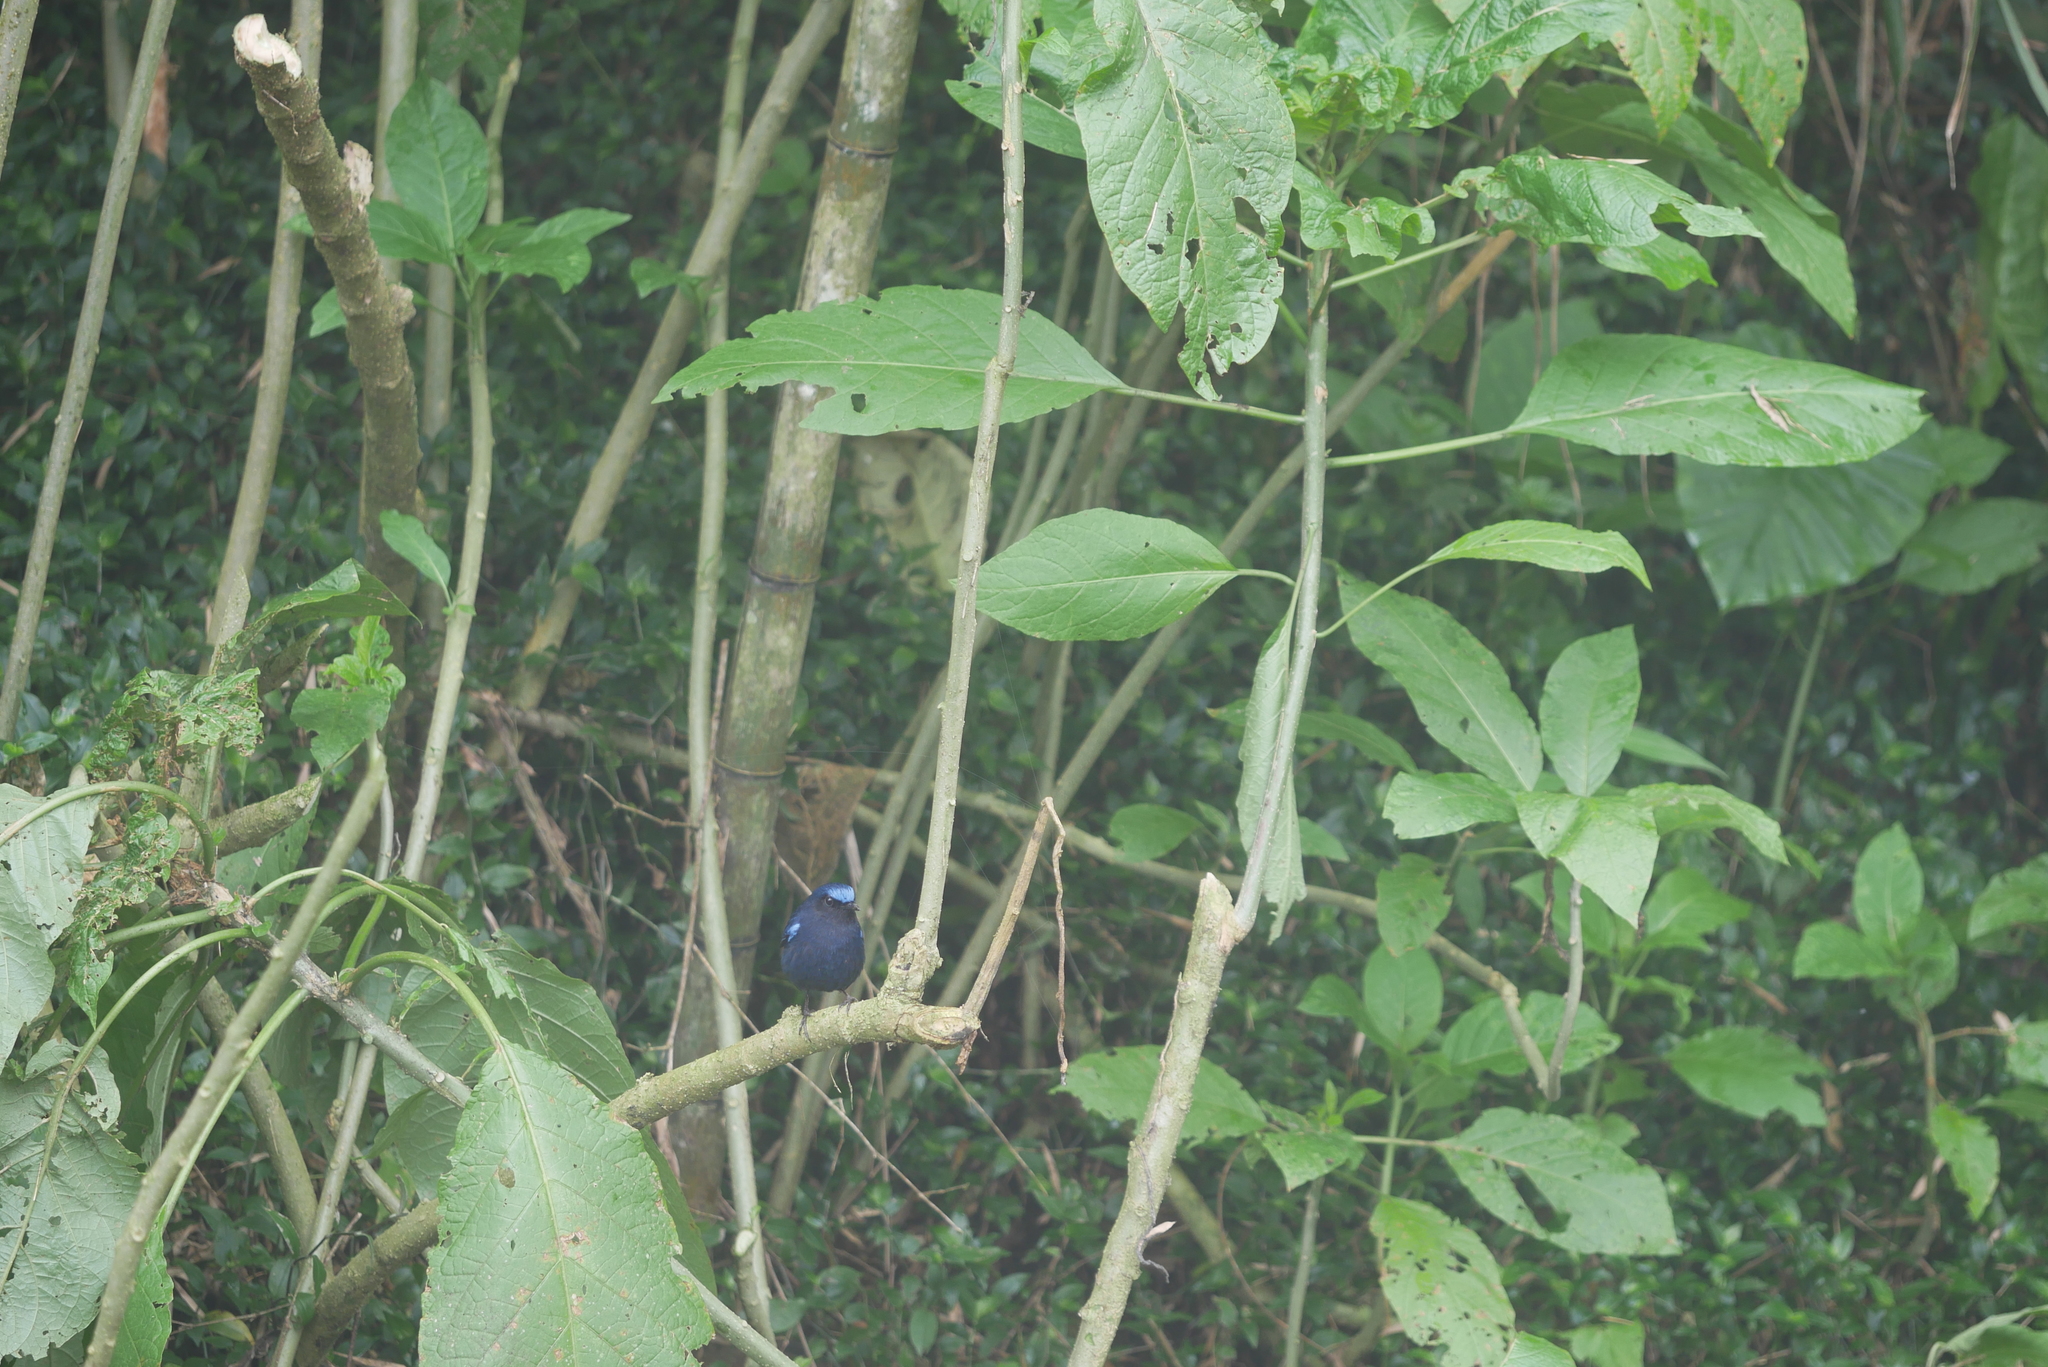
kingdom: Animalia
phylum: Chordata
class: Aves
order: Passeriformes
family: Muscicapidae
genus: Myiomela
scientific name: Myiomela leucura
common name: White-tailed robin
